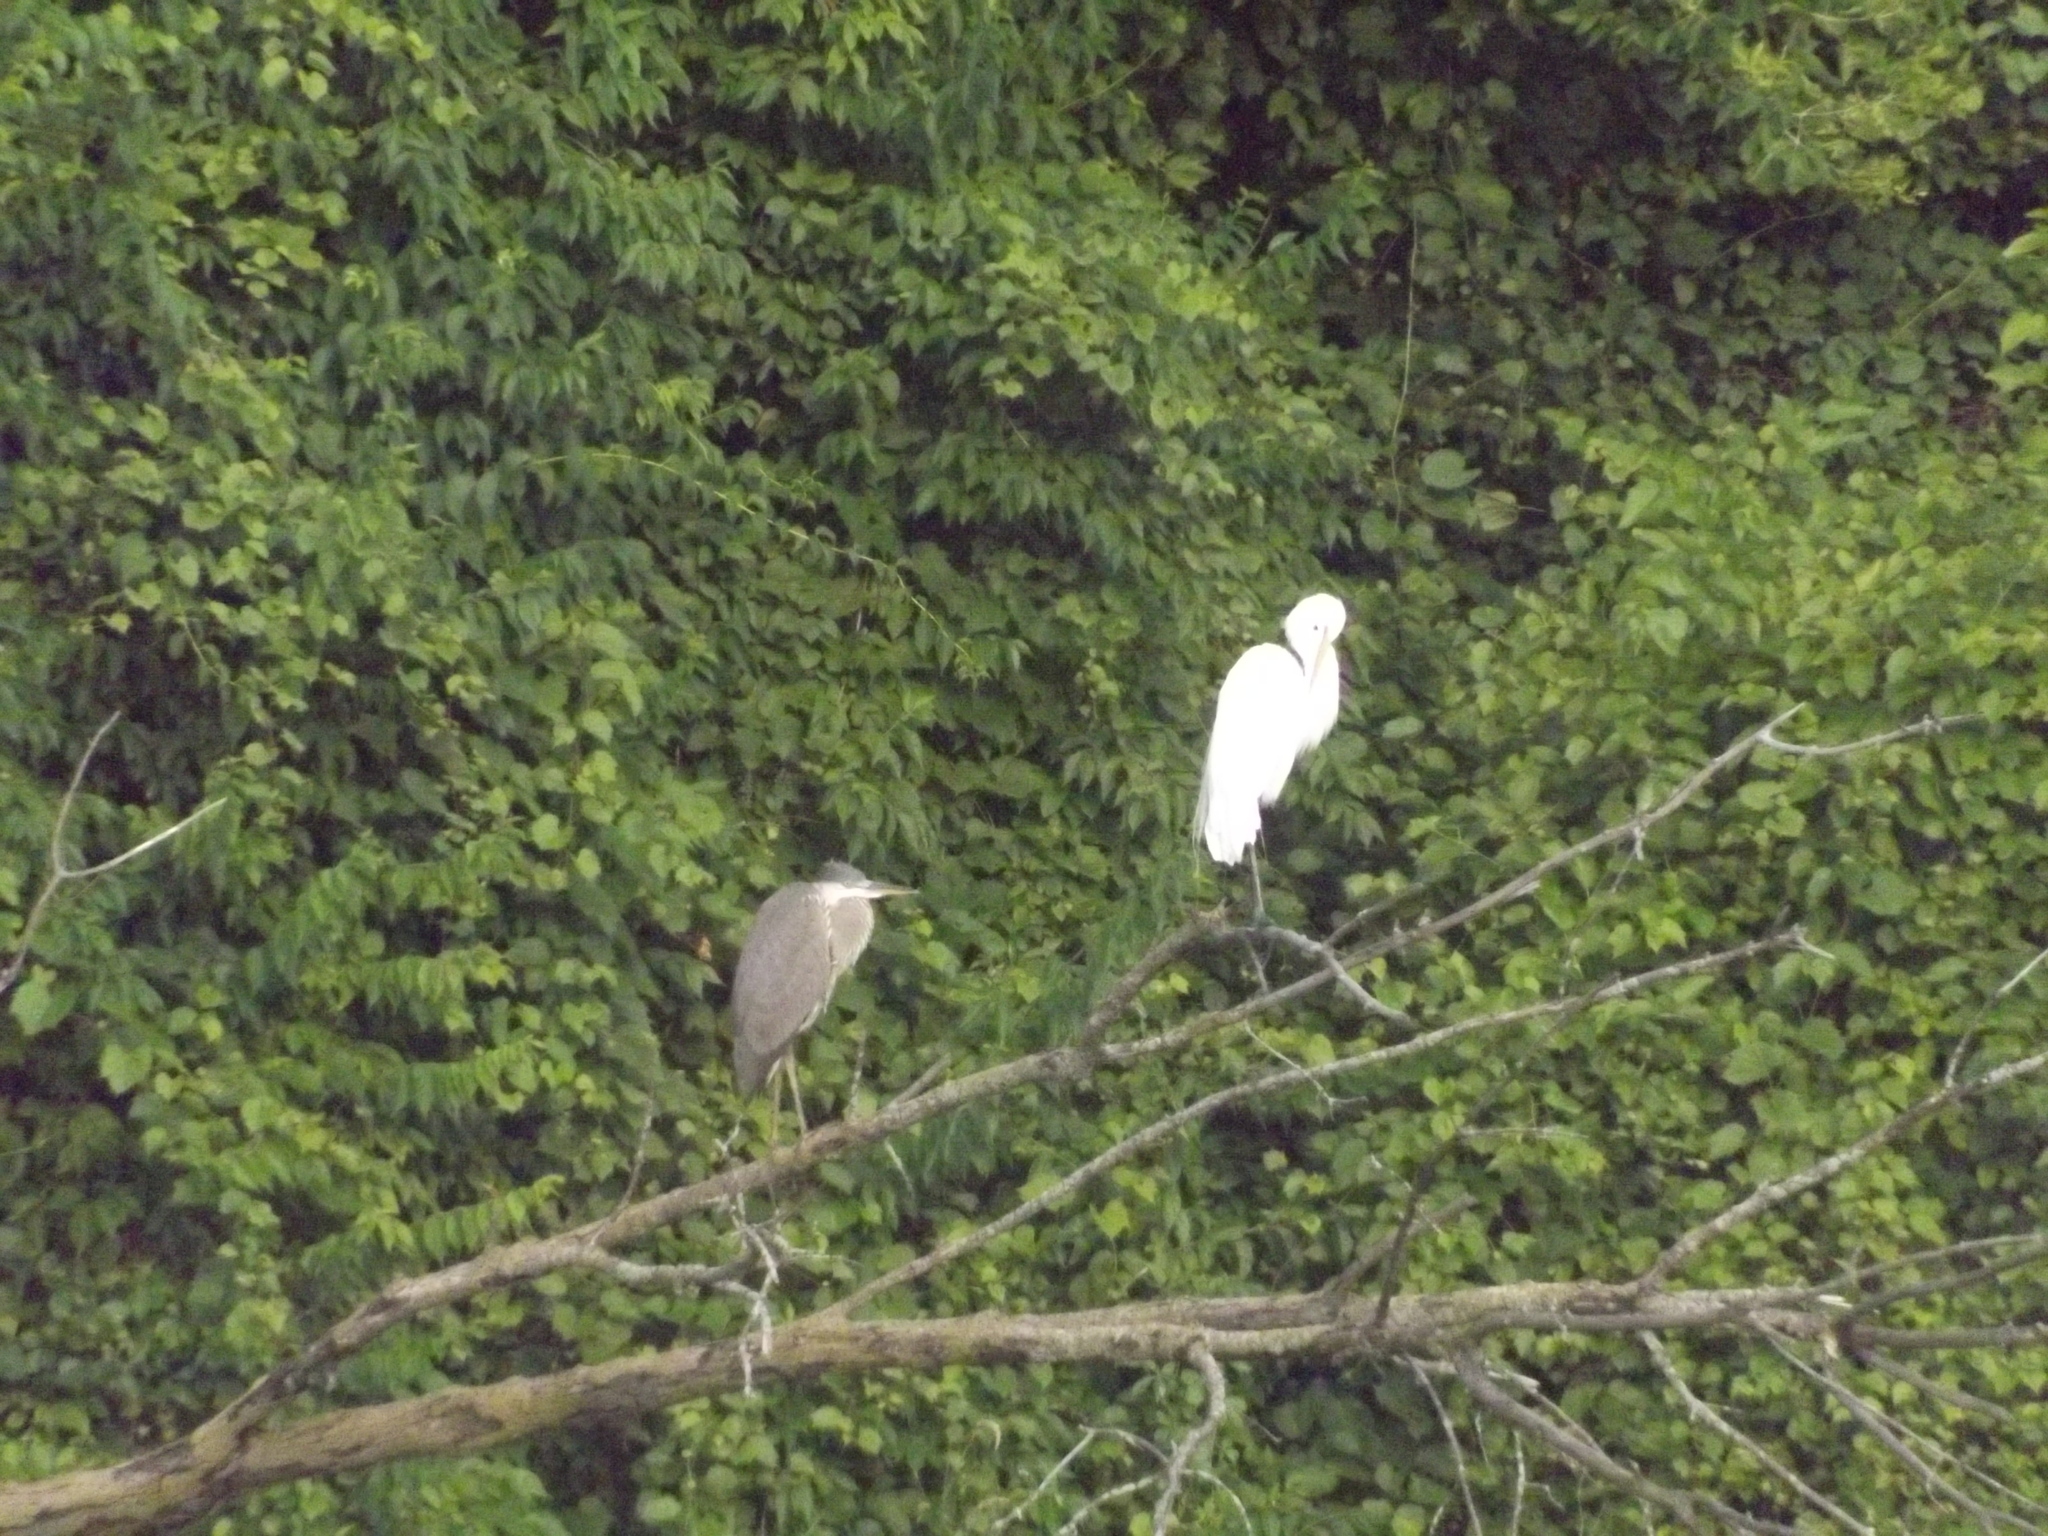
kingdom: Animalia
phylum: Chordata
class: Aves
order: Pelecaniformes
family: Ardeidae
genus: Ardea
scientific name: Ardea alba
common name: Great egret
